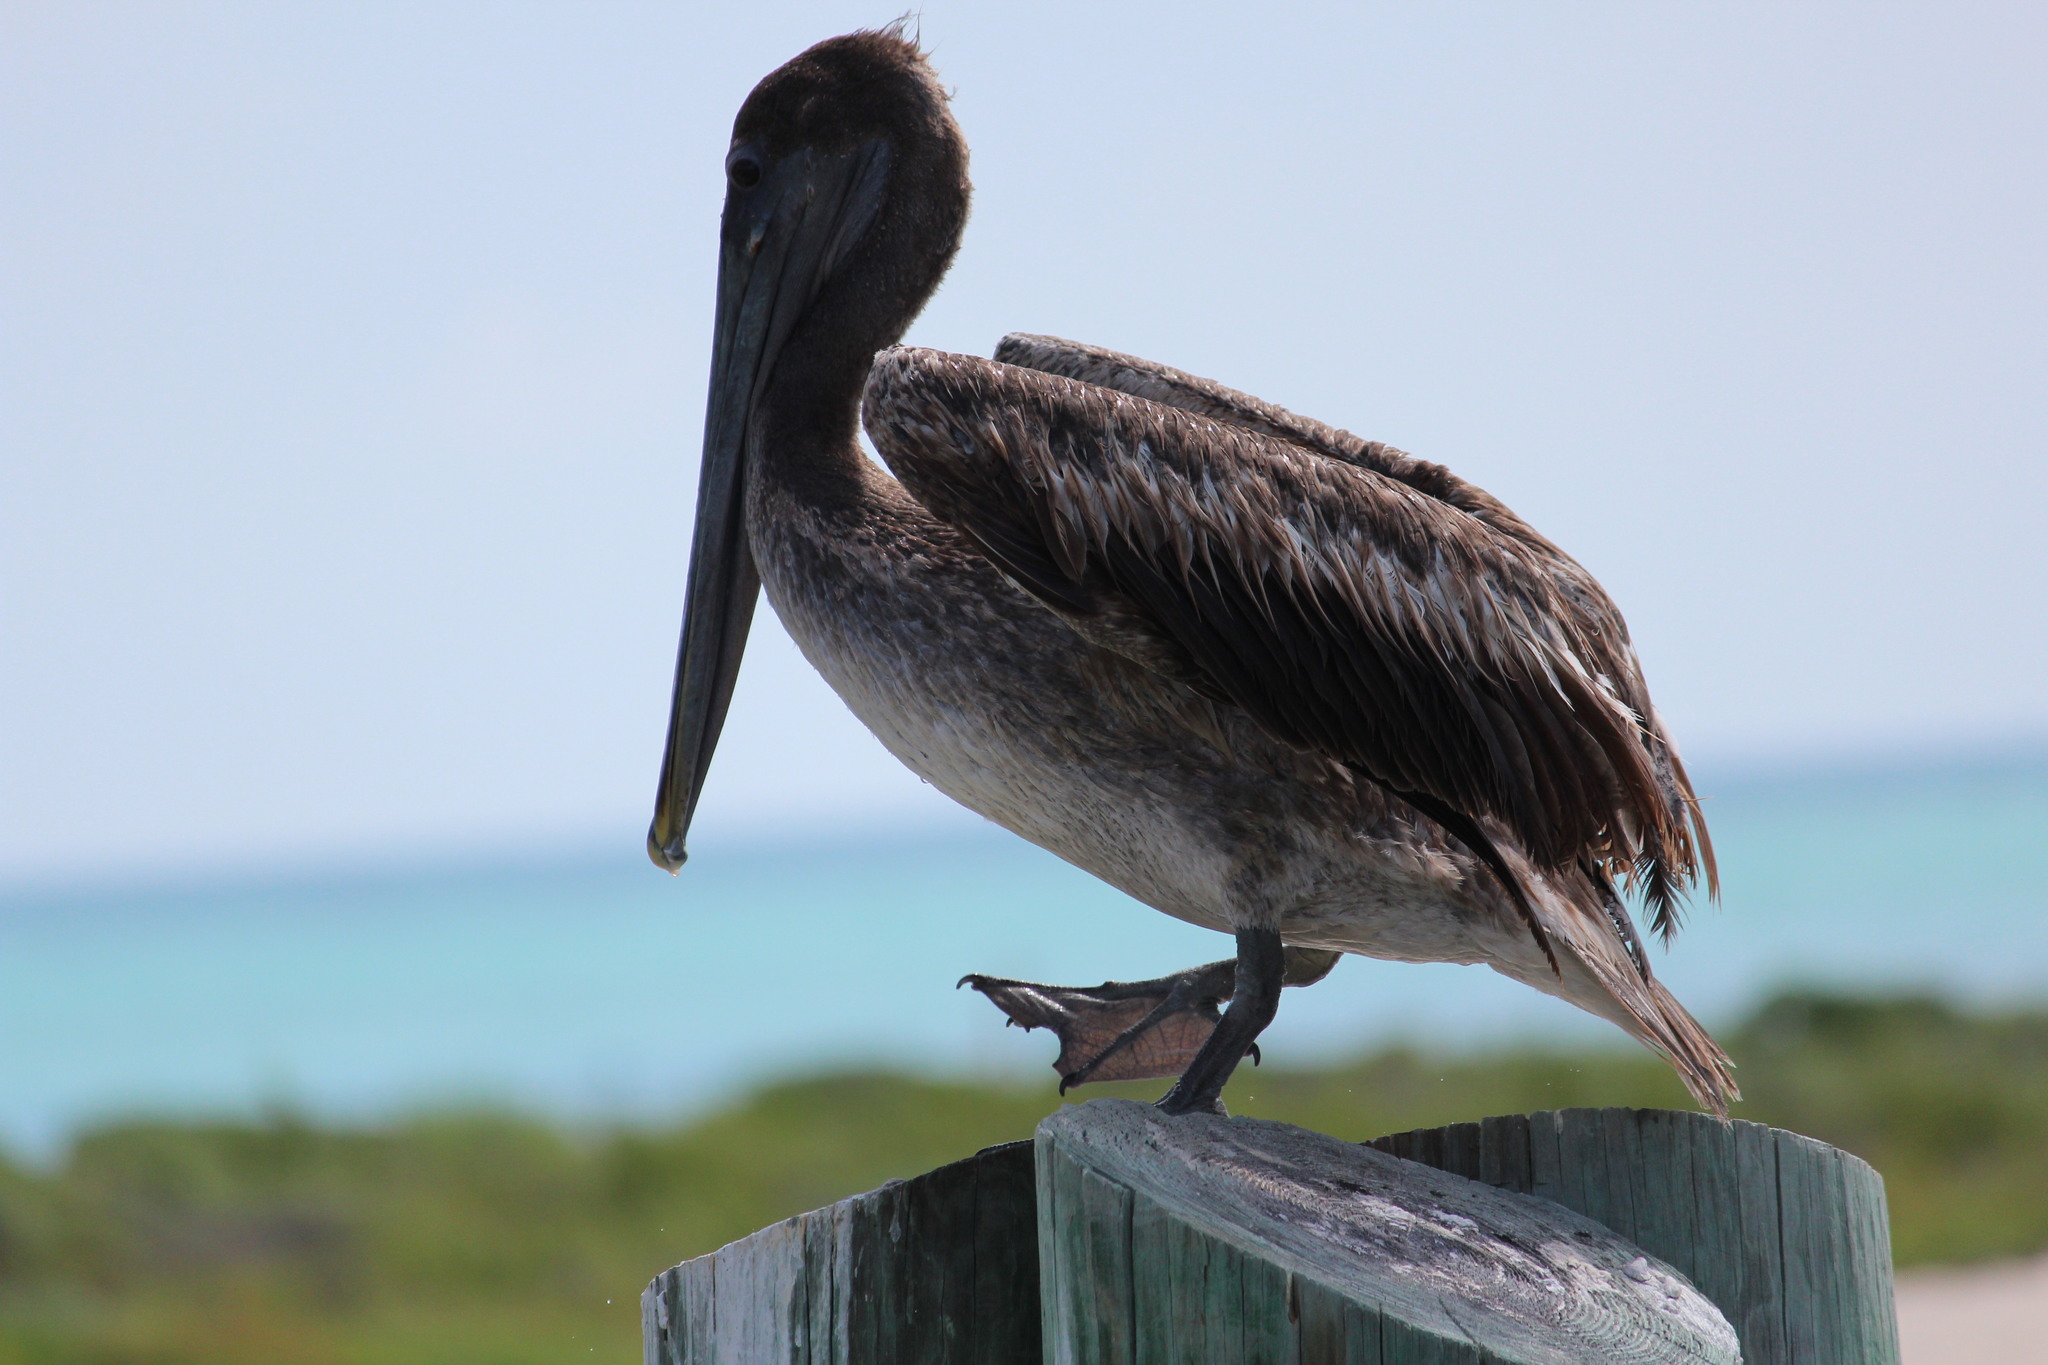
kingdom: Animalia
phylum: Chordata
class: Aves
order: Pelecaniformes
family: Pelecanidae
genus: Pelecanus
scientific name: Pelecanus occidentalis
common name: Brown pelican
